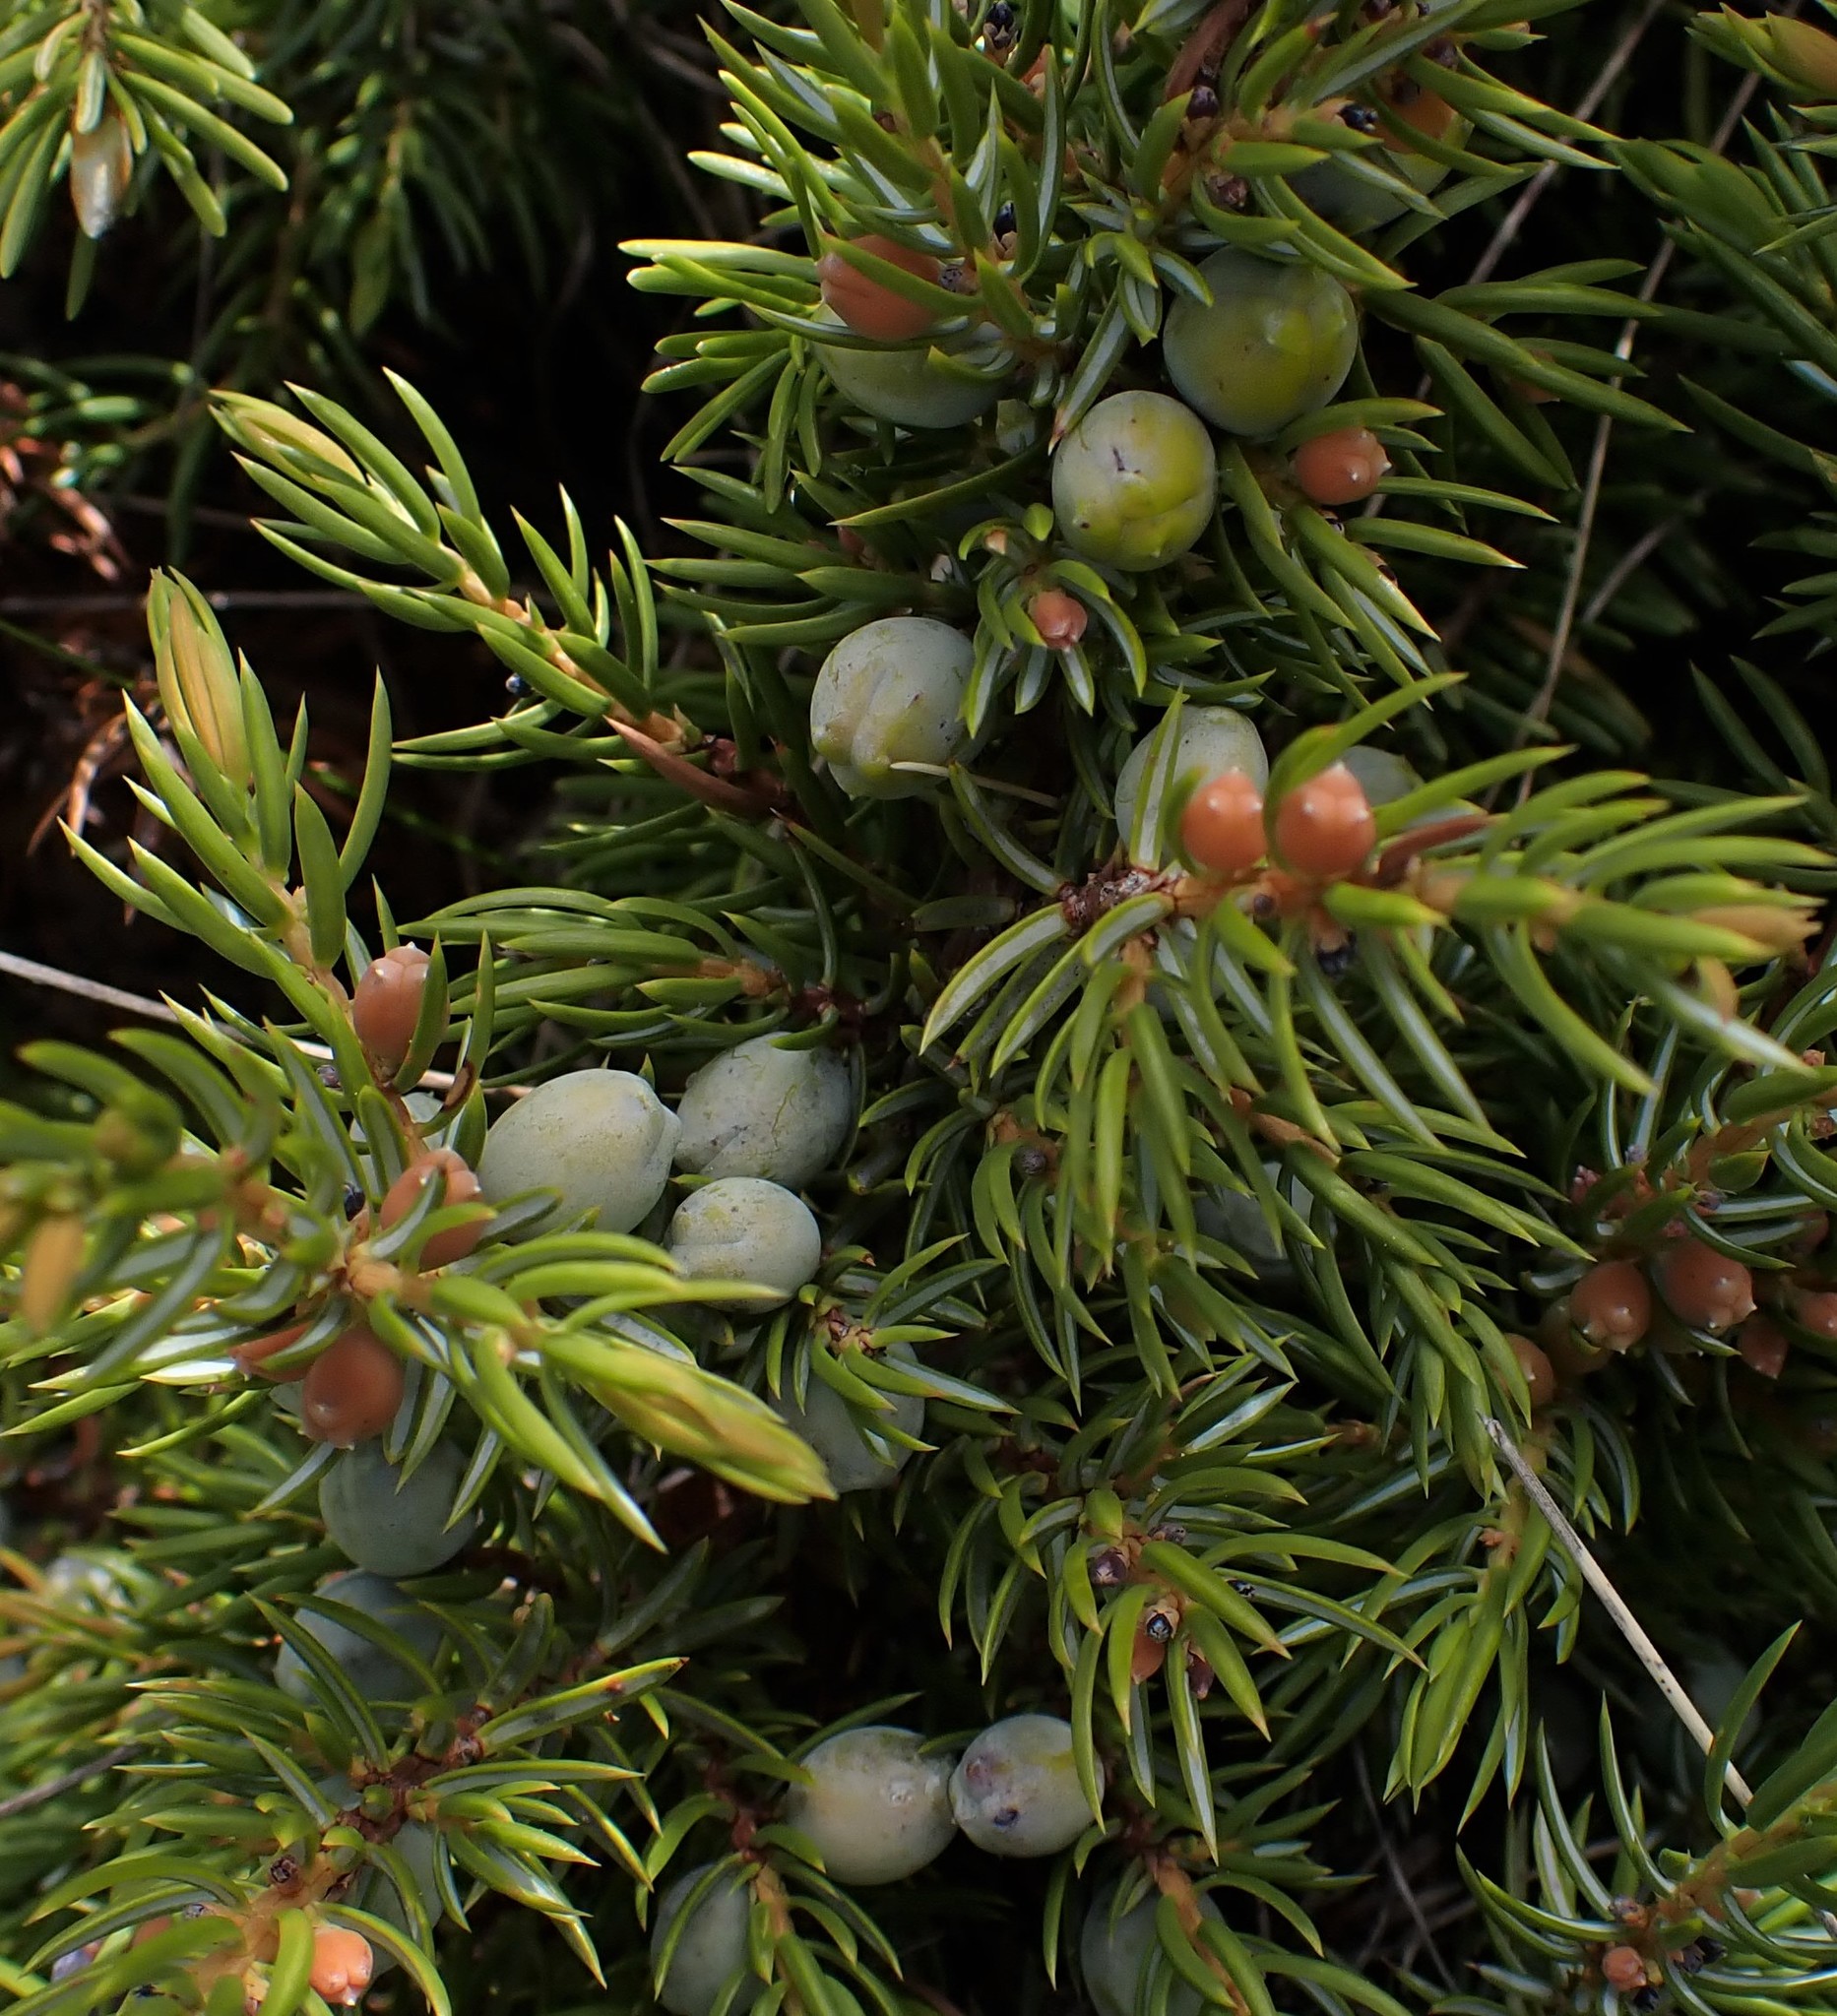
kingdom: Plantae
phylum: Tracheophyta
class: Pinopsida
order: Pinales
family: Cupressaceae
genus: Juniperus
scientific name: Juniperus communis
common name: Common juniper
